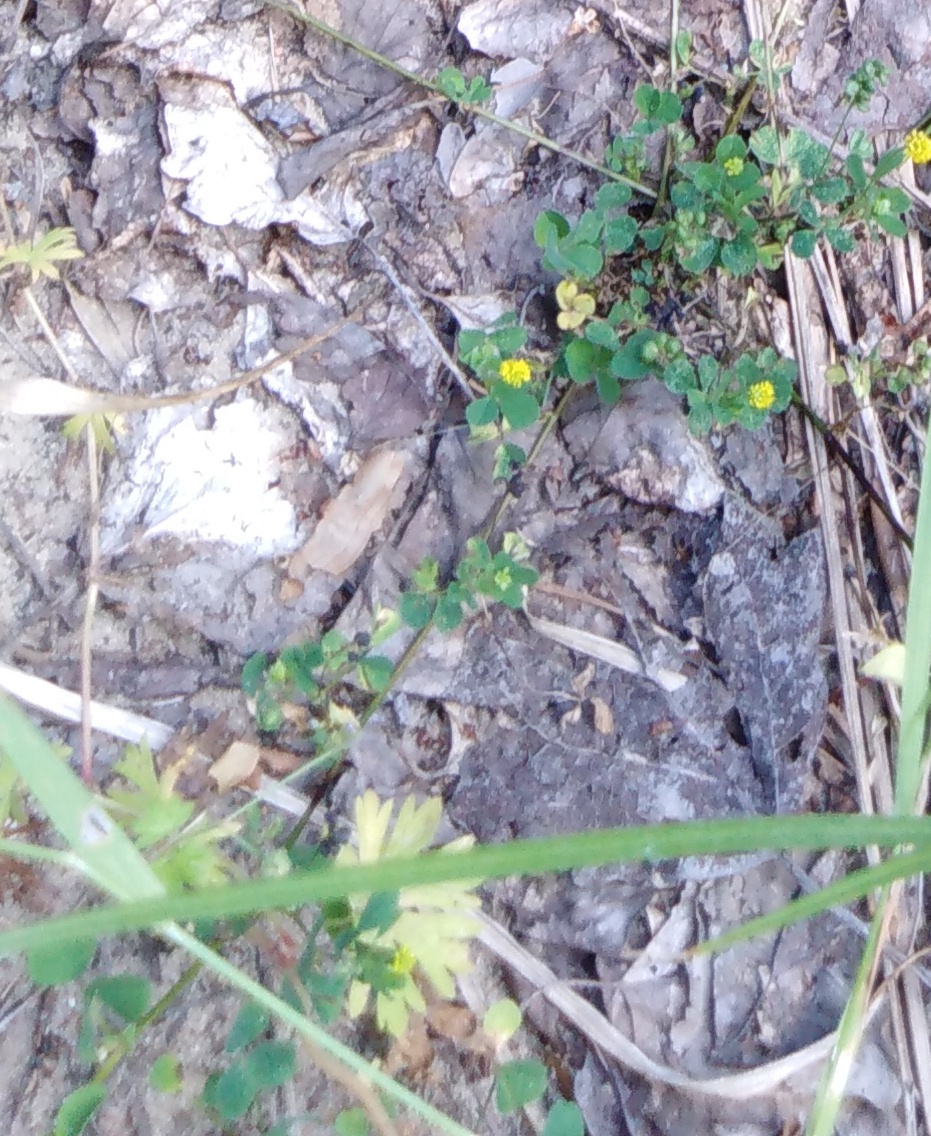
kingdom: Plantae
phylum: Tracheophyta
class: Magnoliopsida
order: Fabales
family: Fabaceae
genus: Medicago
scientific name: Medicago lupulina
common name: Black medick
